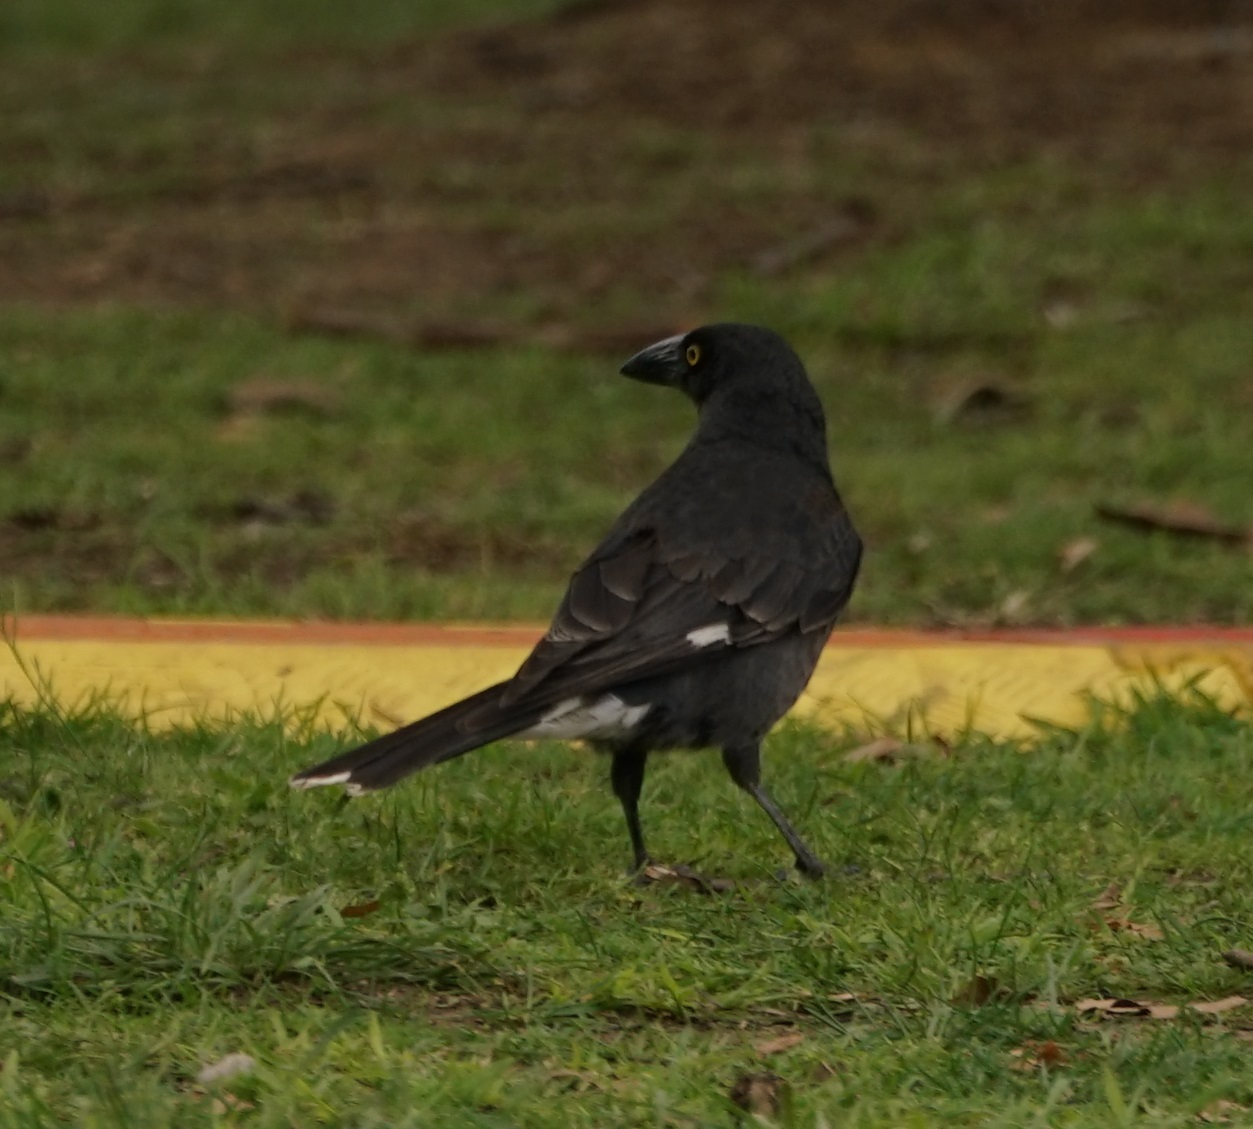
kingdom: Animalia
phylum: Chordata
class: Aves
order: Passeriformes
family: Cracticidae
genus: Strepera
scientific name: Strepera graculina
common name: Pied currawong
